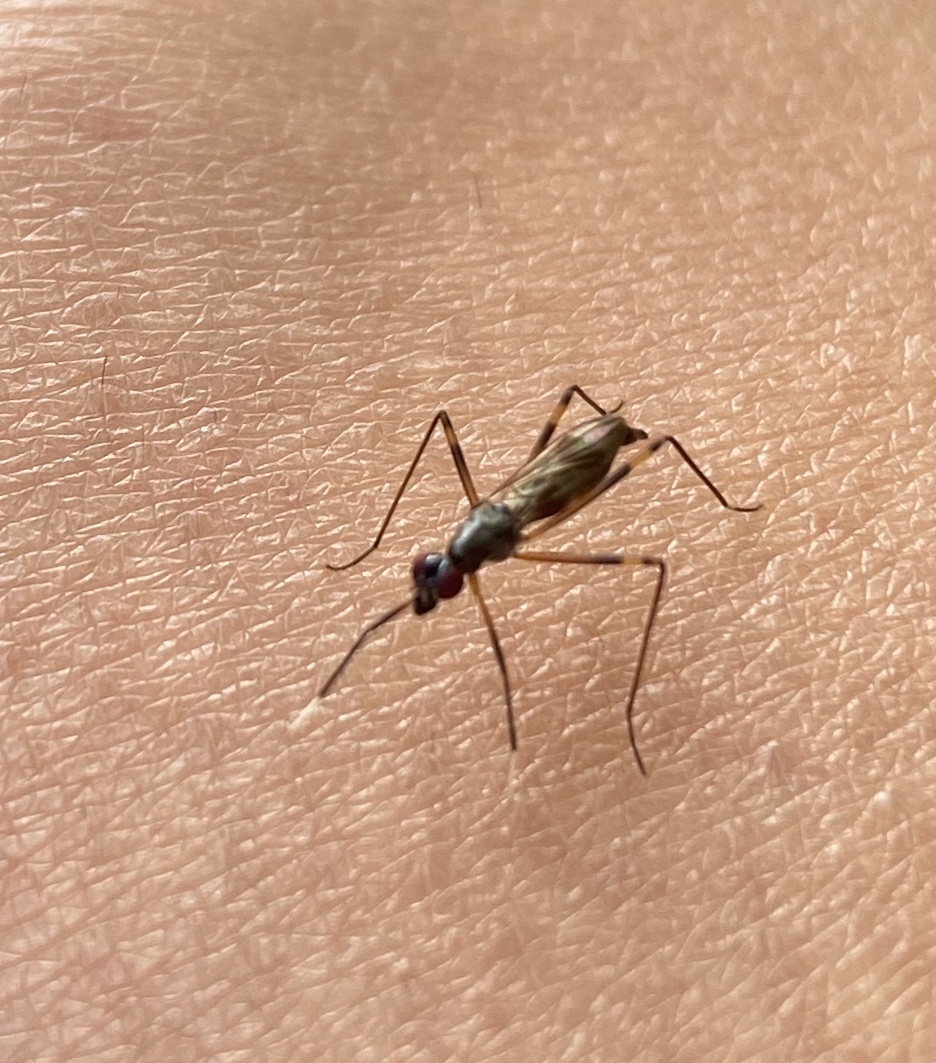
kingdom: Animalia
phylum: Arthropoda
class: Insecta
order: Diptera
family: Micropezidae
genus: Rainieria
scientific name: Rainieria antennaepes
